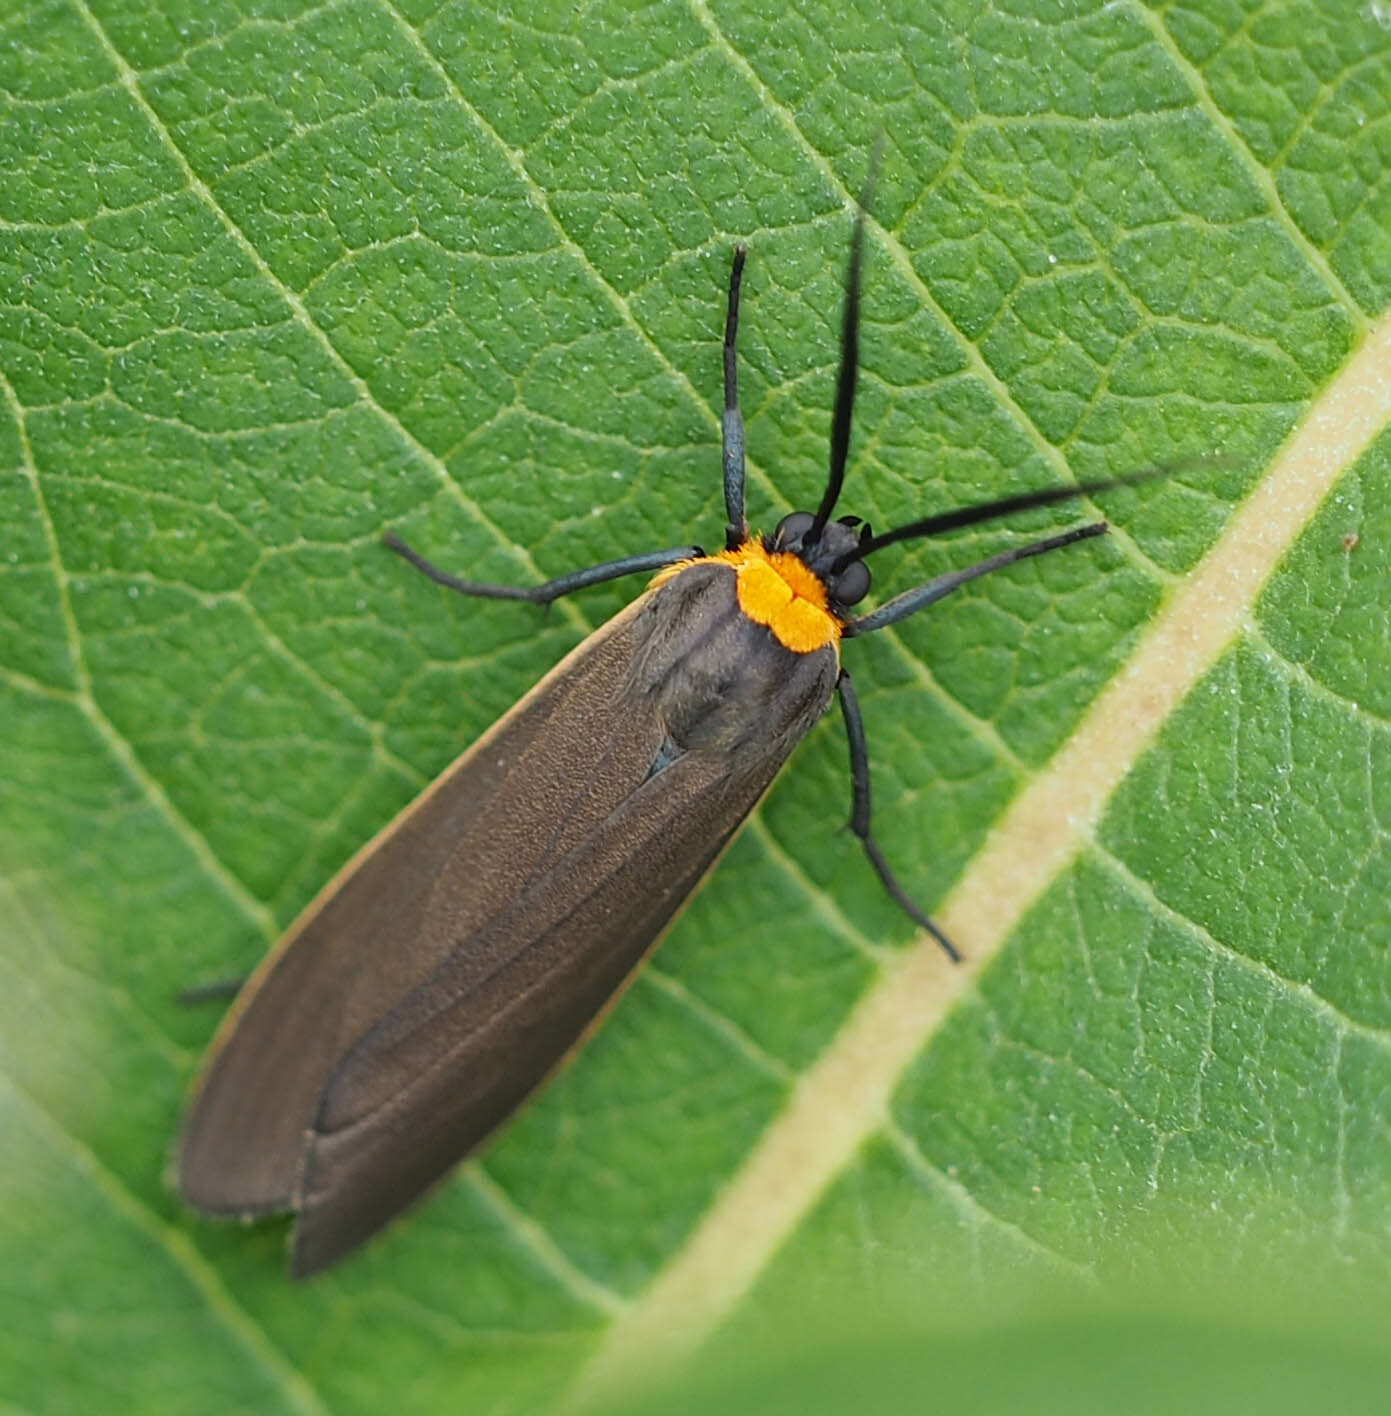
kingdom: Animalia
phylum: Arthropoda
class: Insecta
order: Lepidoptera
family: Erebidae
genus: Cisseps
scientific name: Cisseps fulvicollis
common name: Yellow-collared scape moth
